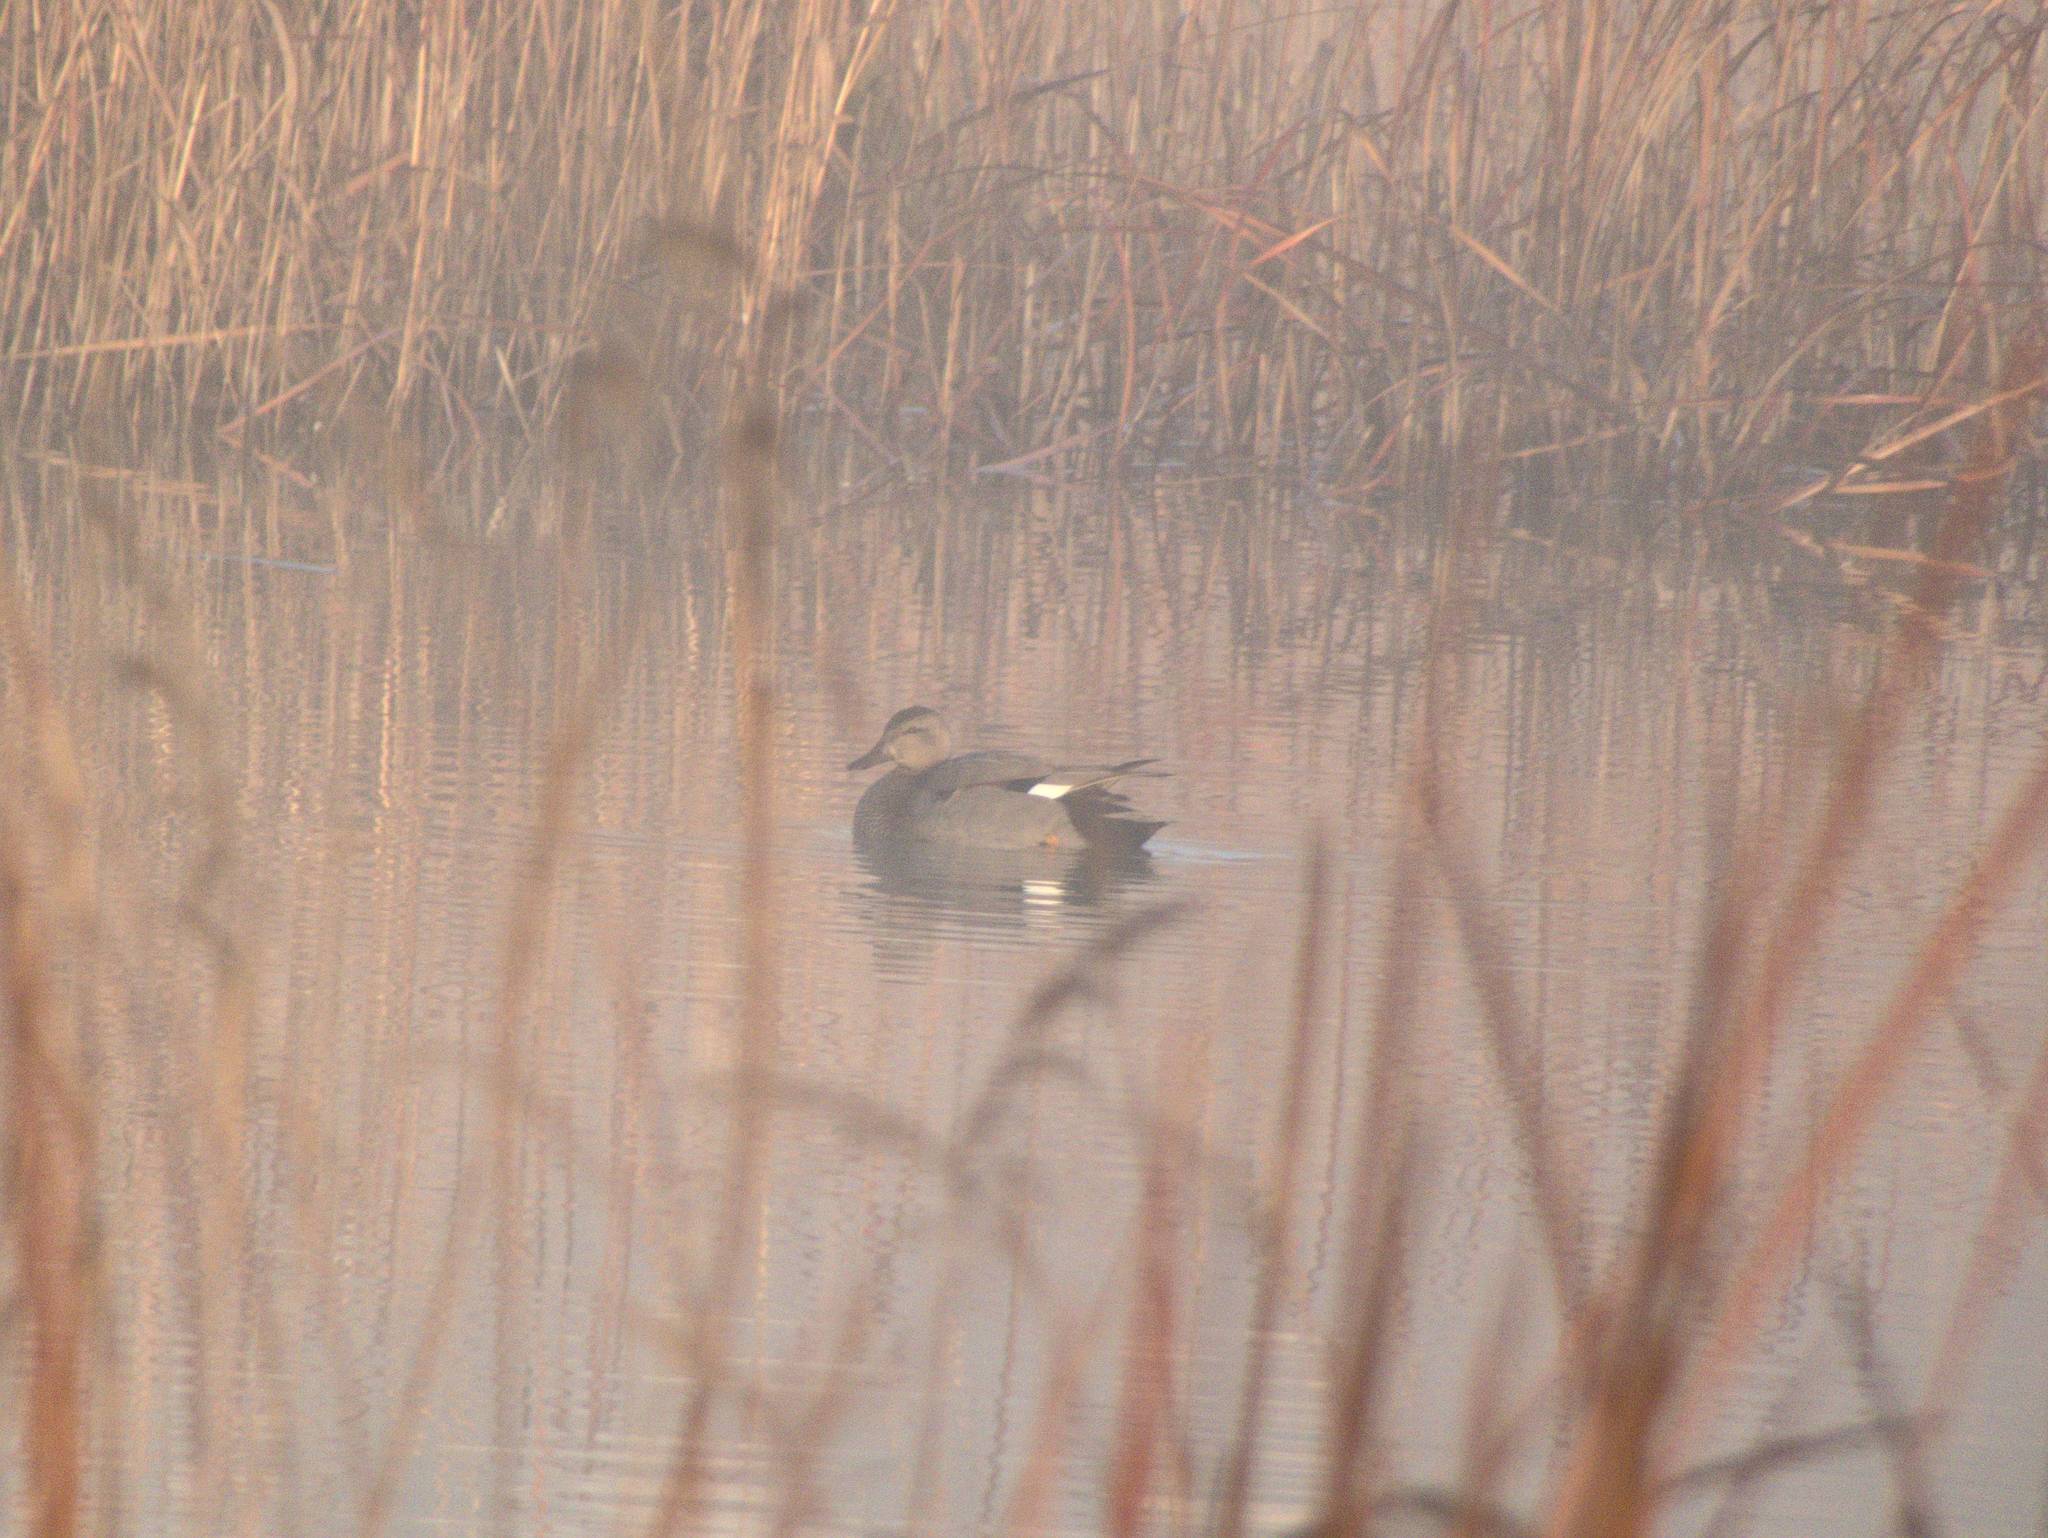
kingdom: Animalia
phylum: Chordata
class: Aves
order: Anseriformes
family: Anatidae
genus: Mareca
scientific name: Mareca strepera
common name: Gadwall
